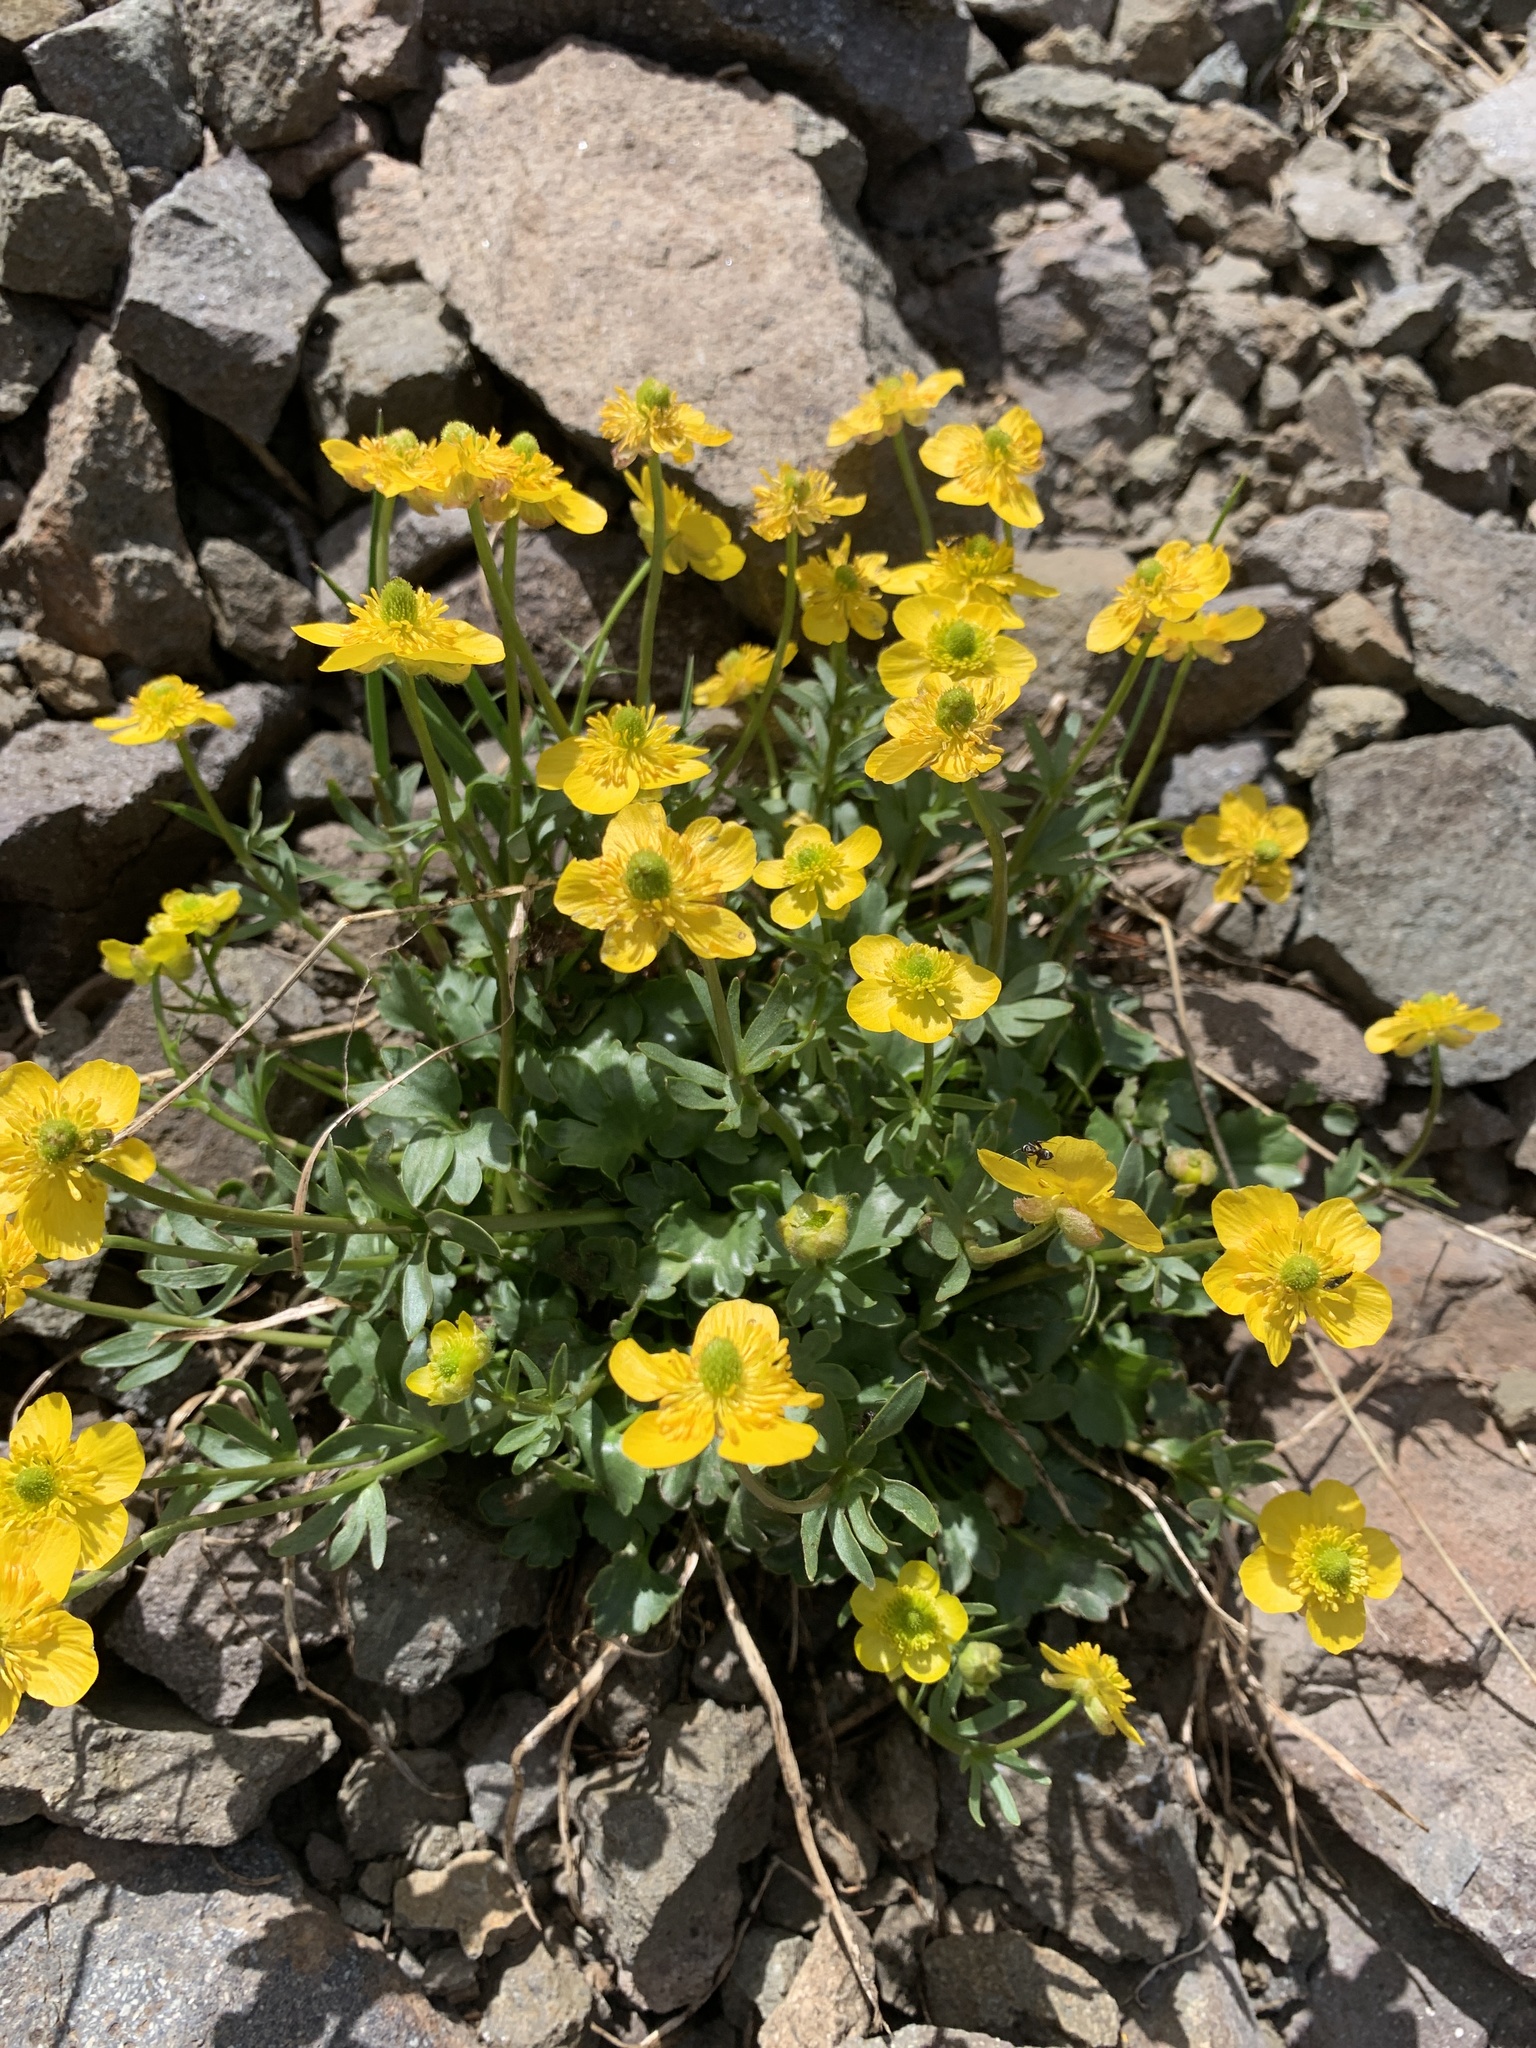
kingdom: Plantae
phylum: Tracheophyta
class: Magnoliopsida
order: Ranunculales
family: Ranunculaceae
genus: Ranunculus
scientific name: Ranunculus eschscholtzii
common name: Eschscholtz's buttercup
